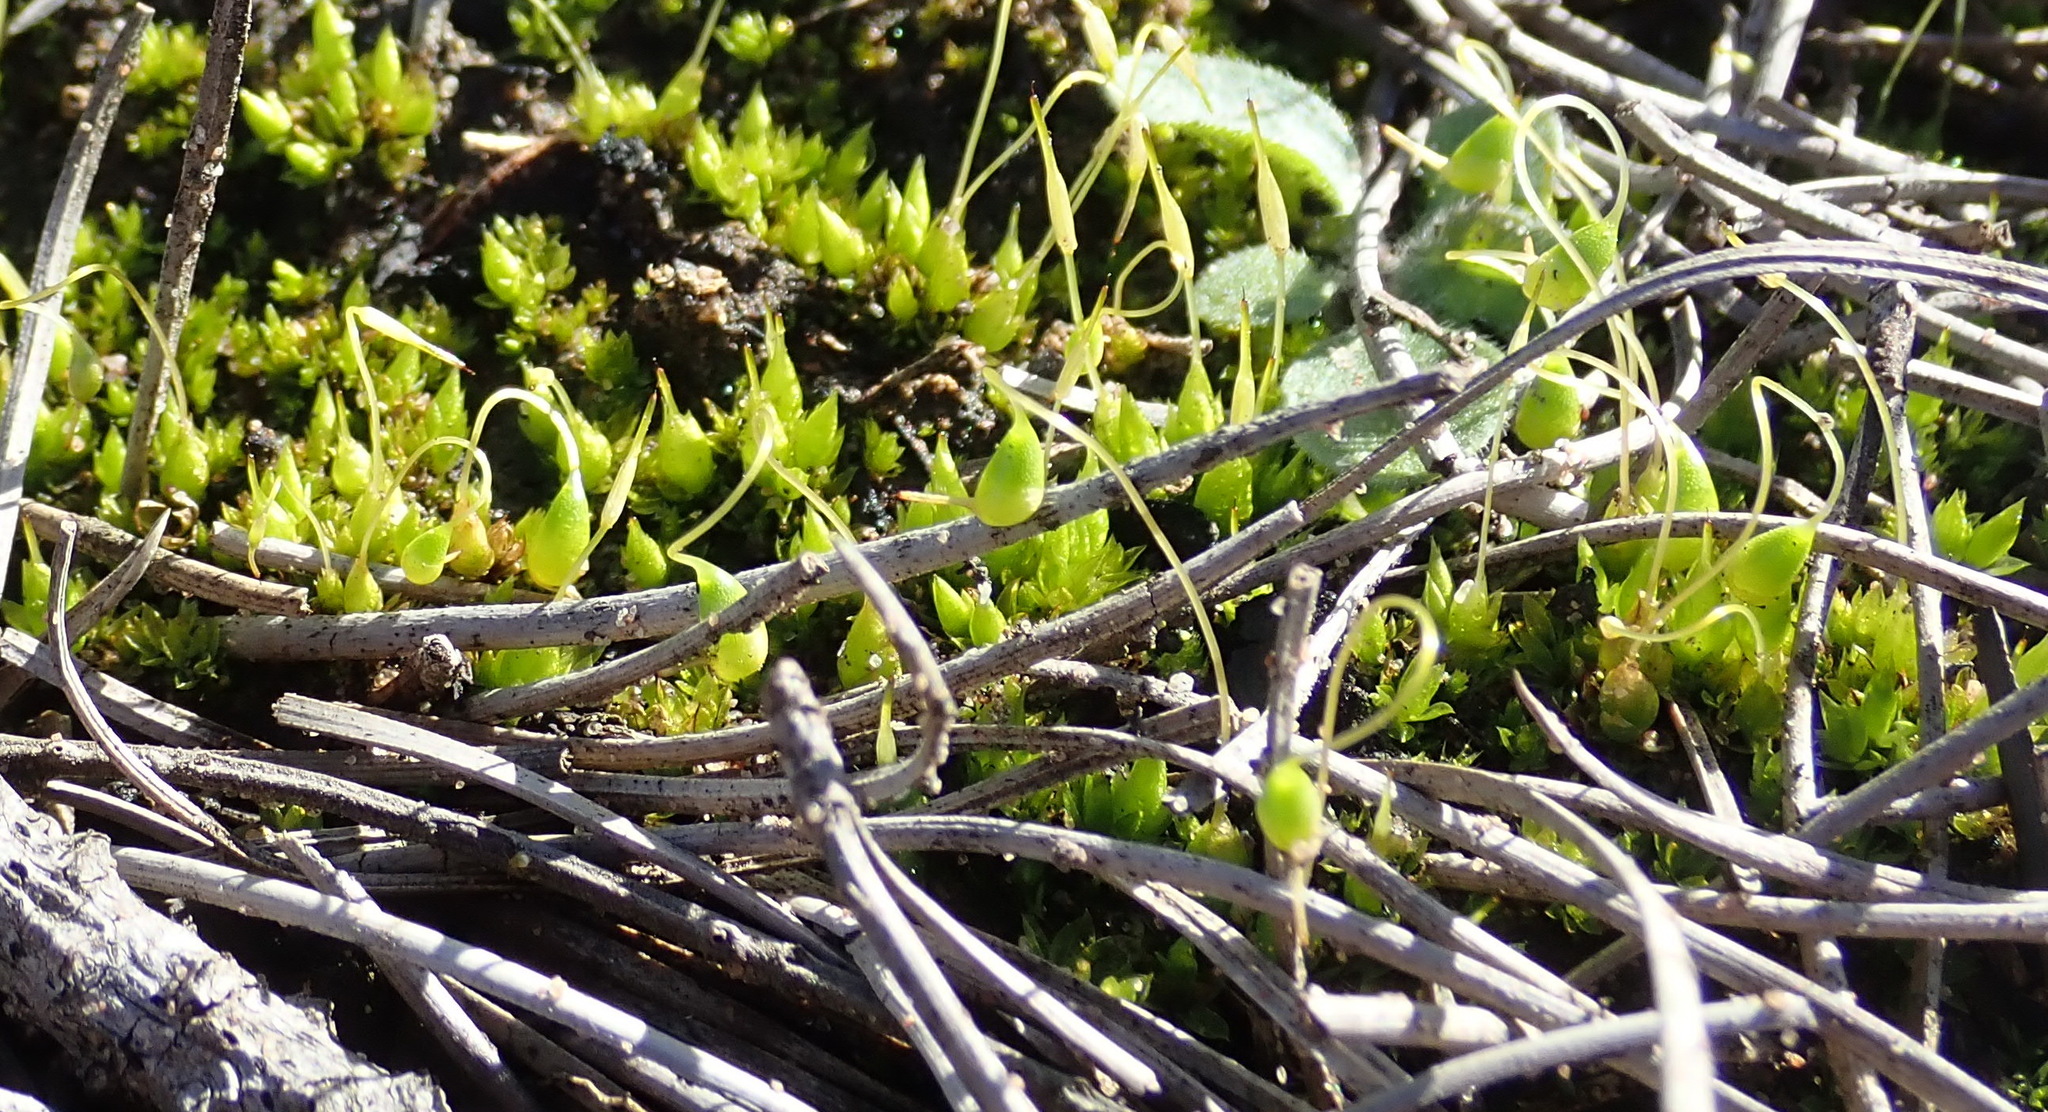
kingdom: Plantae
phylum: Bryophyta
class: Bryopsida
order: Funariales
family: Funariaceae
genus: Funaria
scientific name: Funaria hygrometrica
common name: Common cord moss
